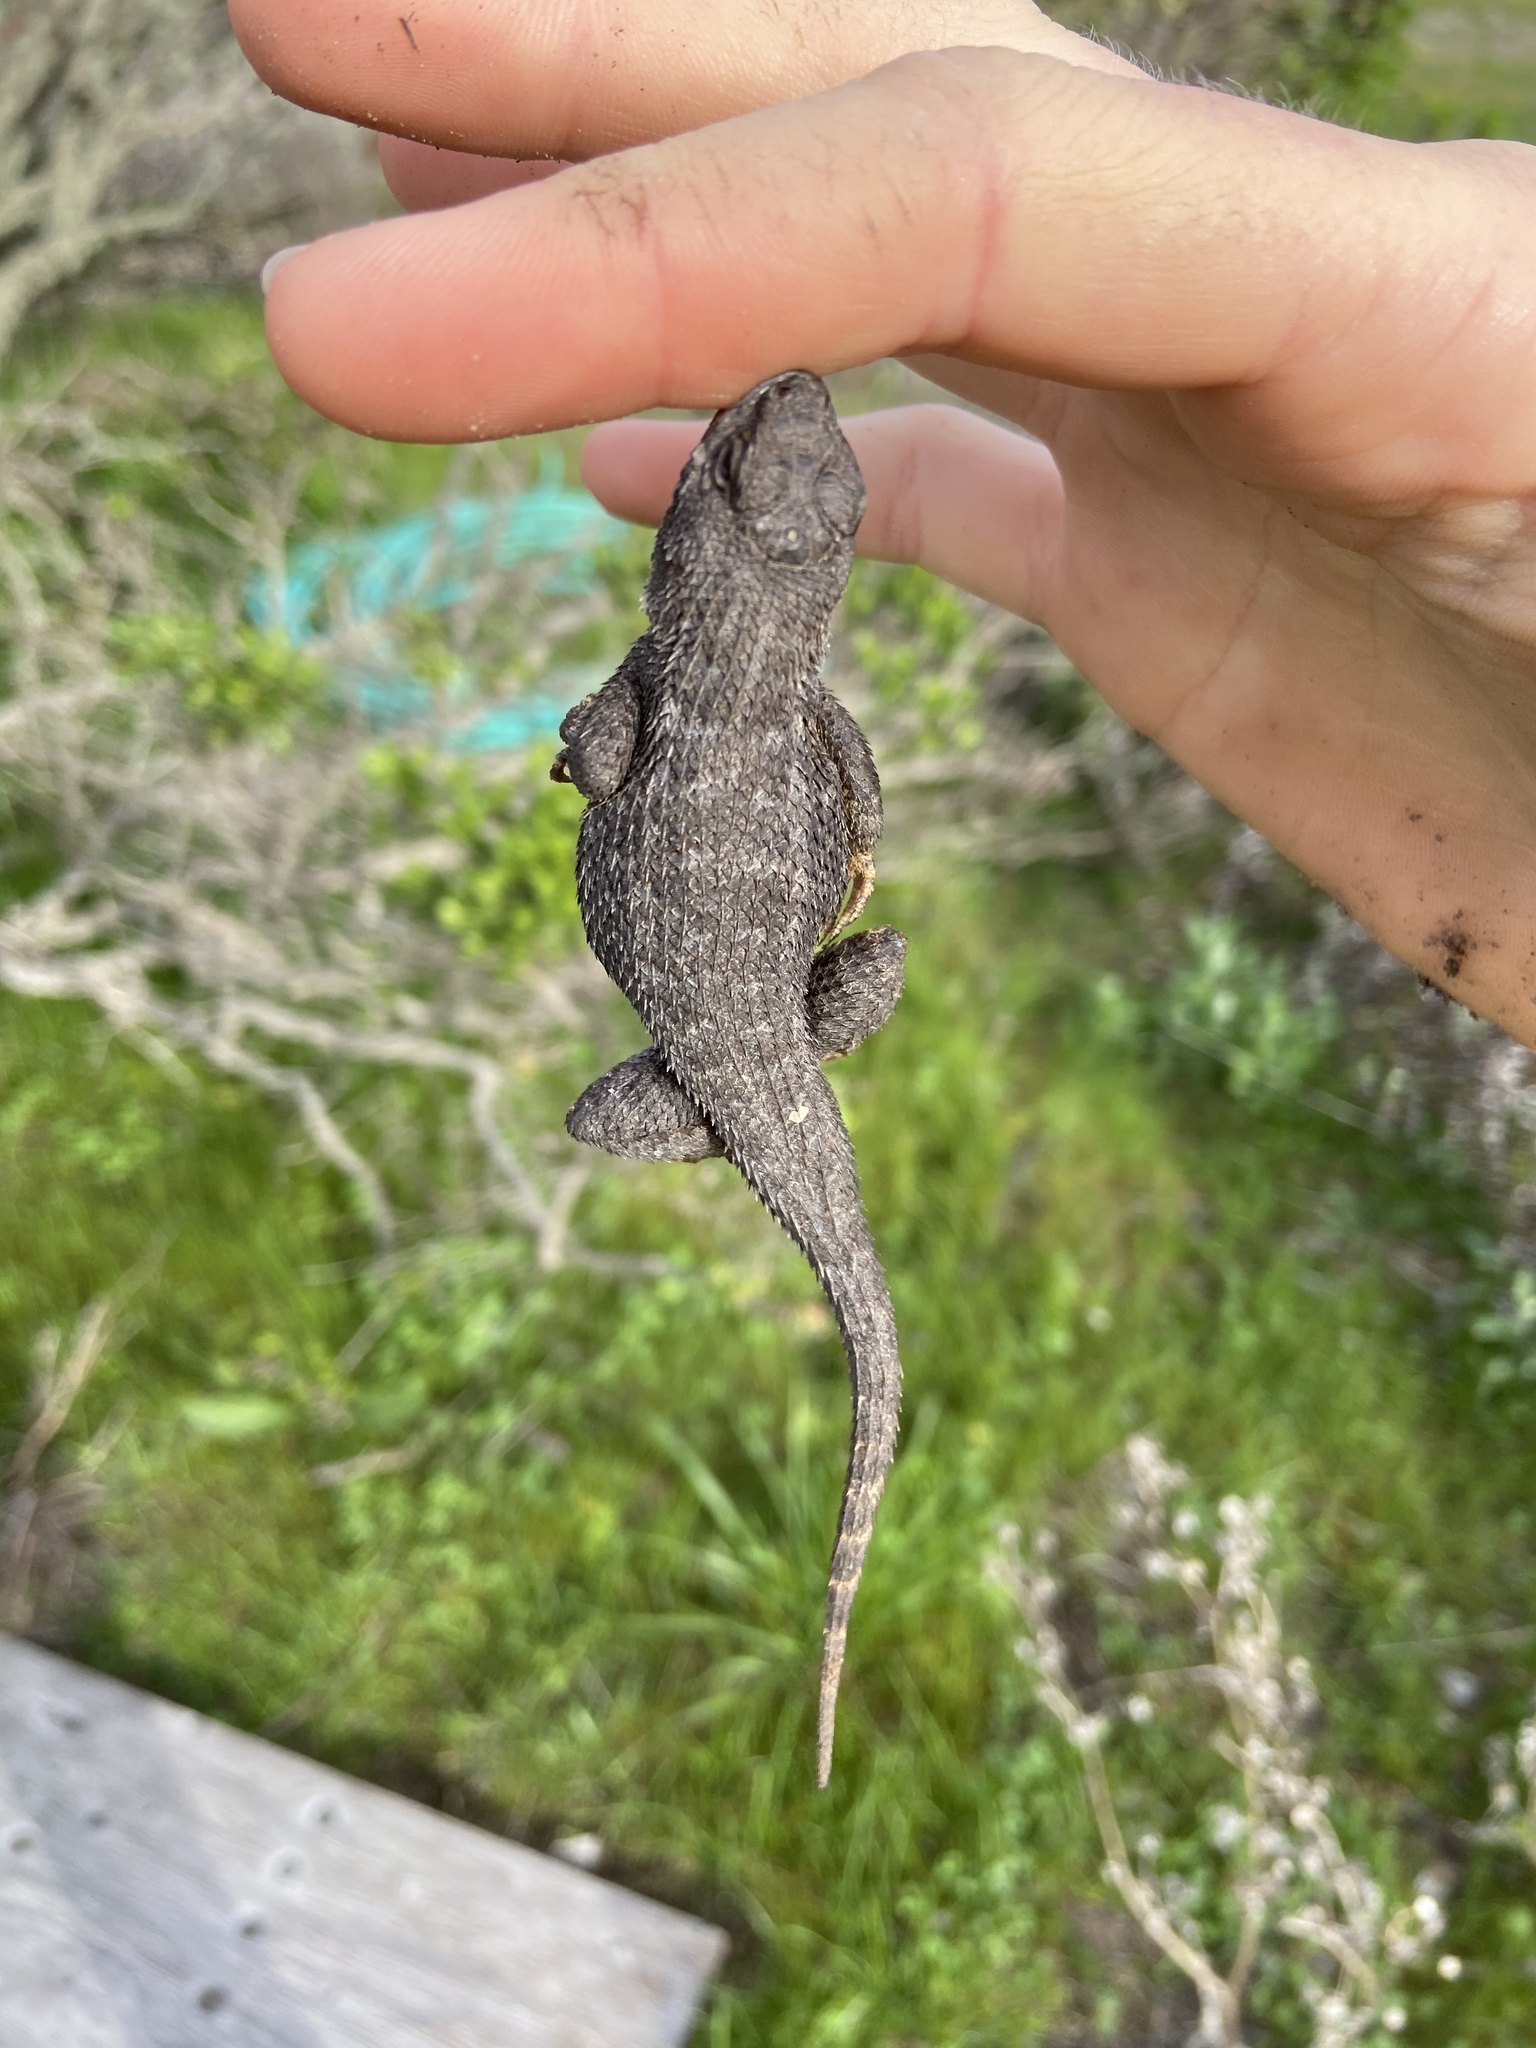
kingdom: Animalia
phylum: Chordata
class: Squamata
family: Phrynosomatidae
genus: Sceloporus
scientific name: Sceloporus occidentalis
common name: Western fence lizard
